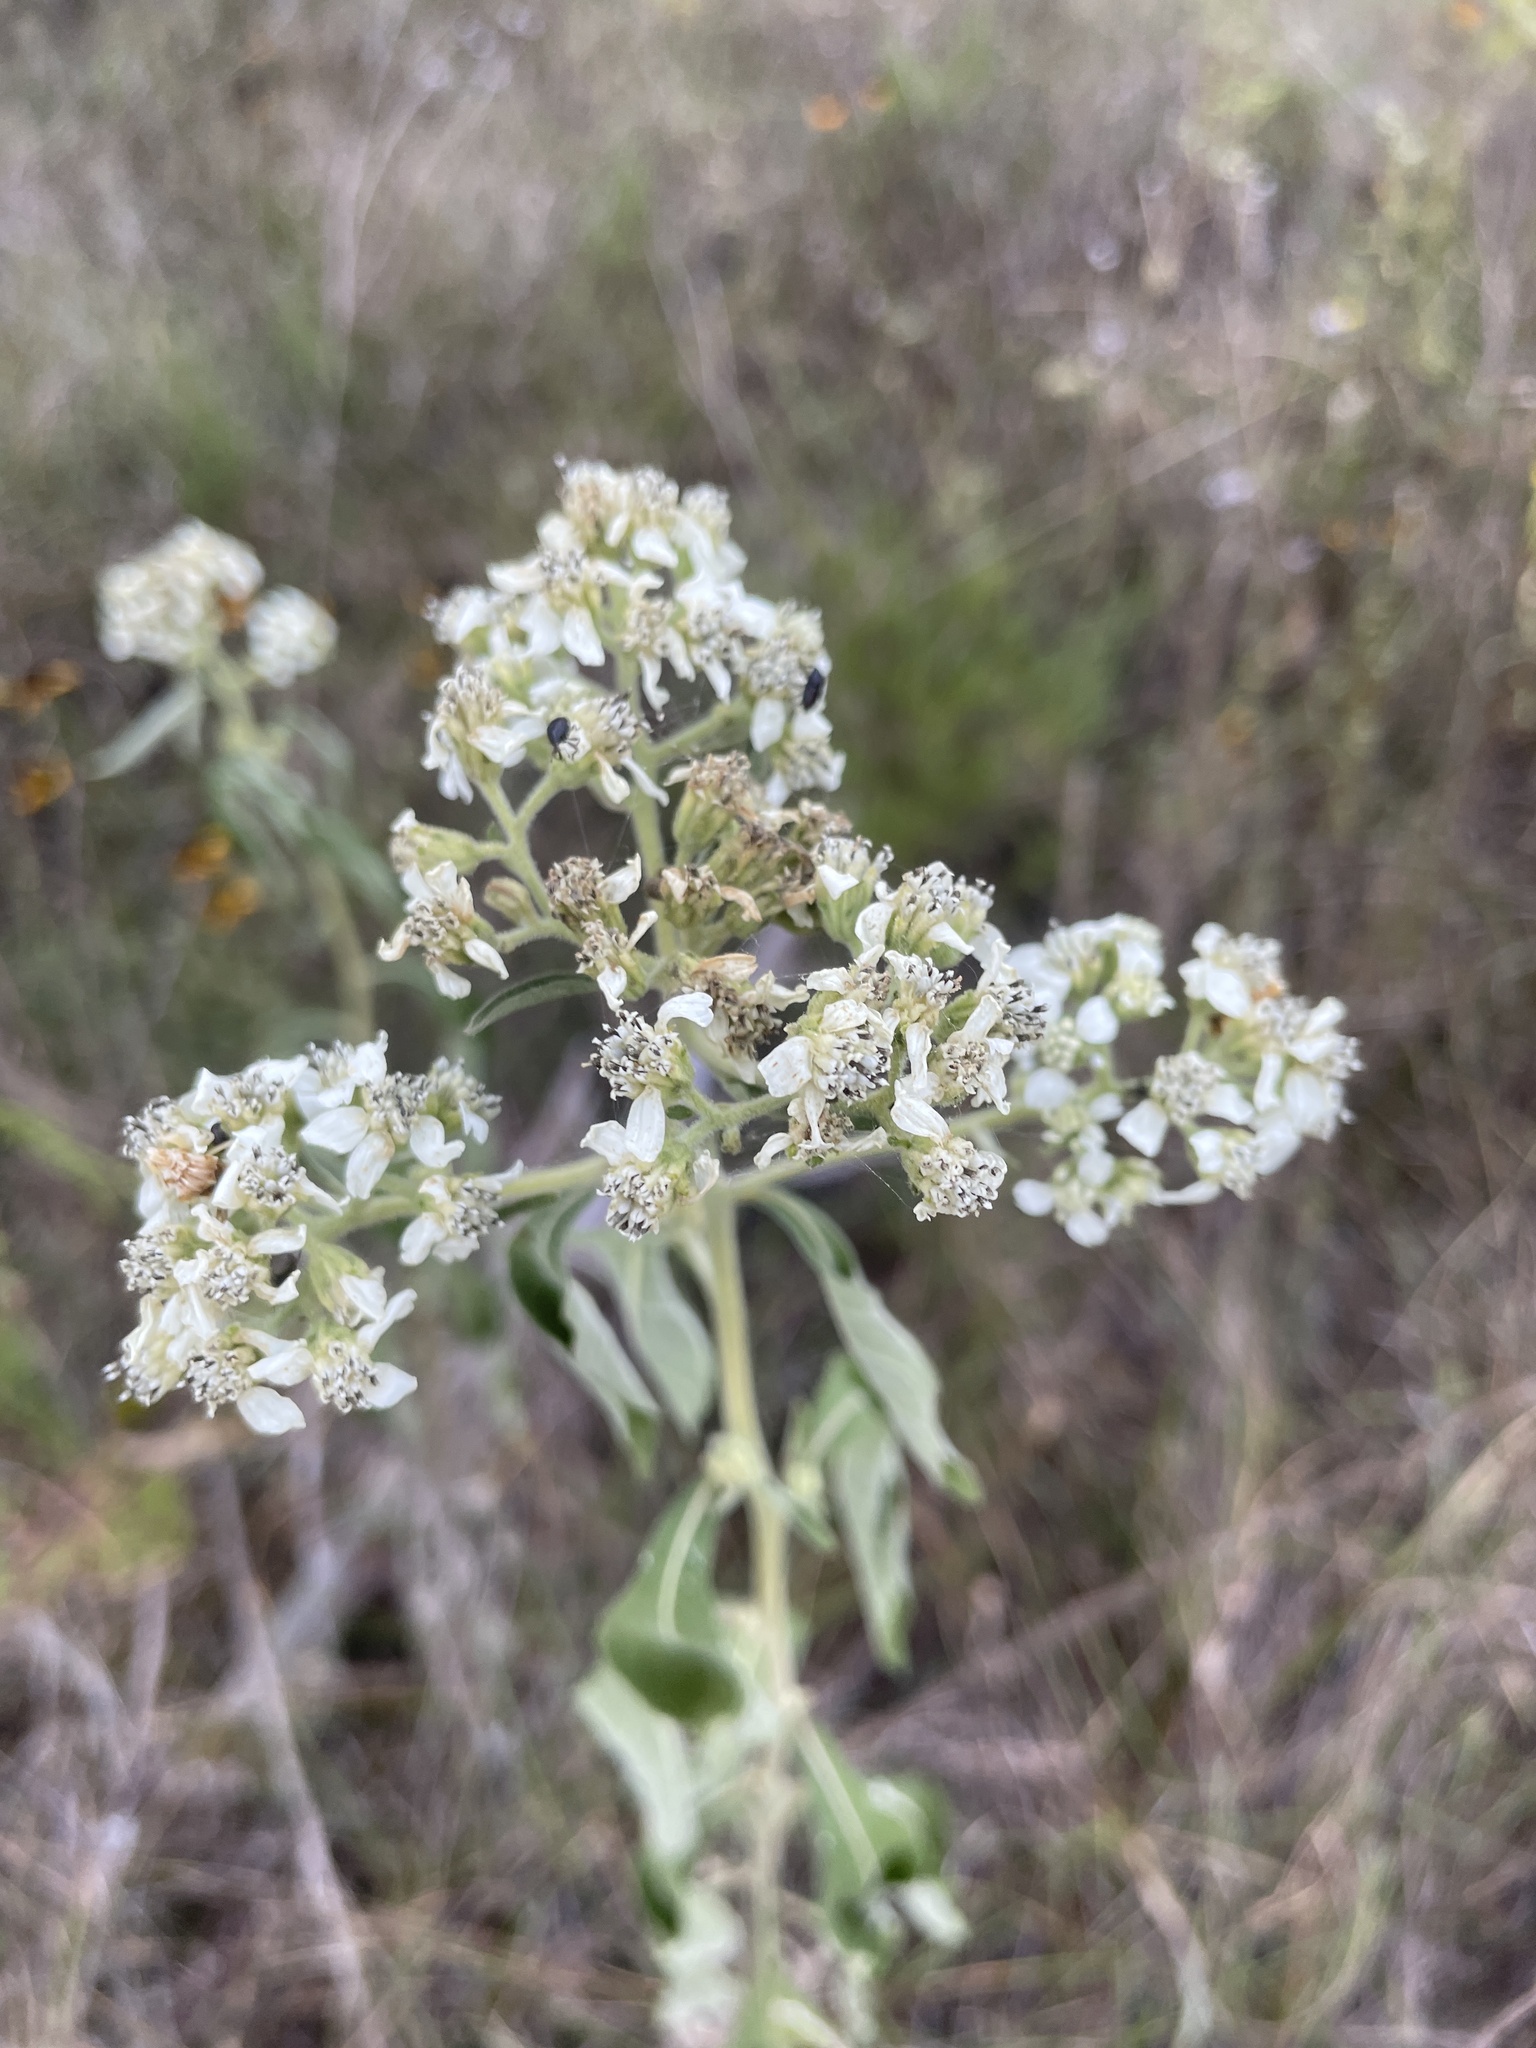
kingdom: Plantae
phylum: Tracheophyta
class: Magnoliopsida
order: Asterales
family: Asteraceae
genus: Verbesina
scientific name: Verbesina virginica
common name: Frostweed
